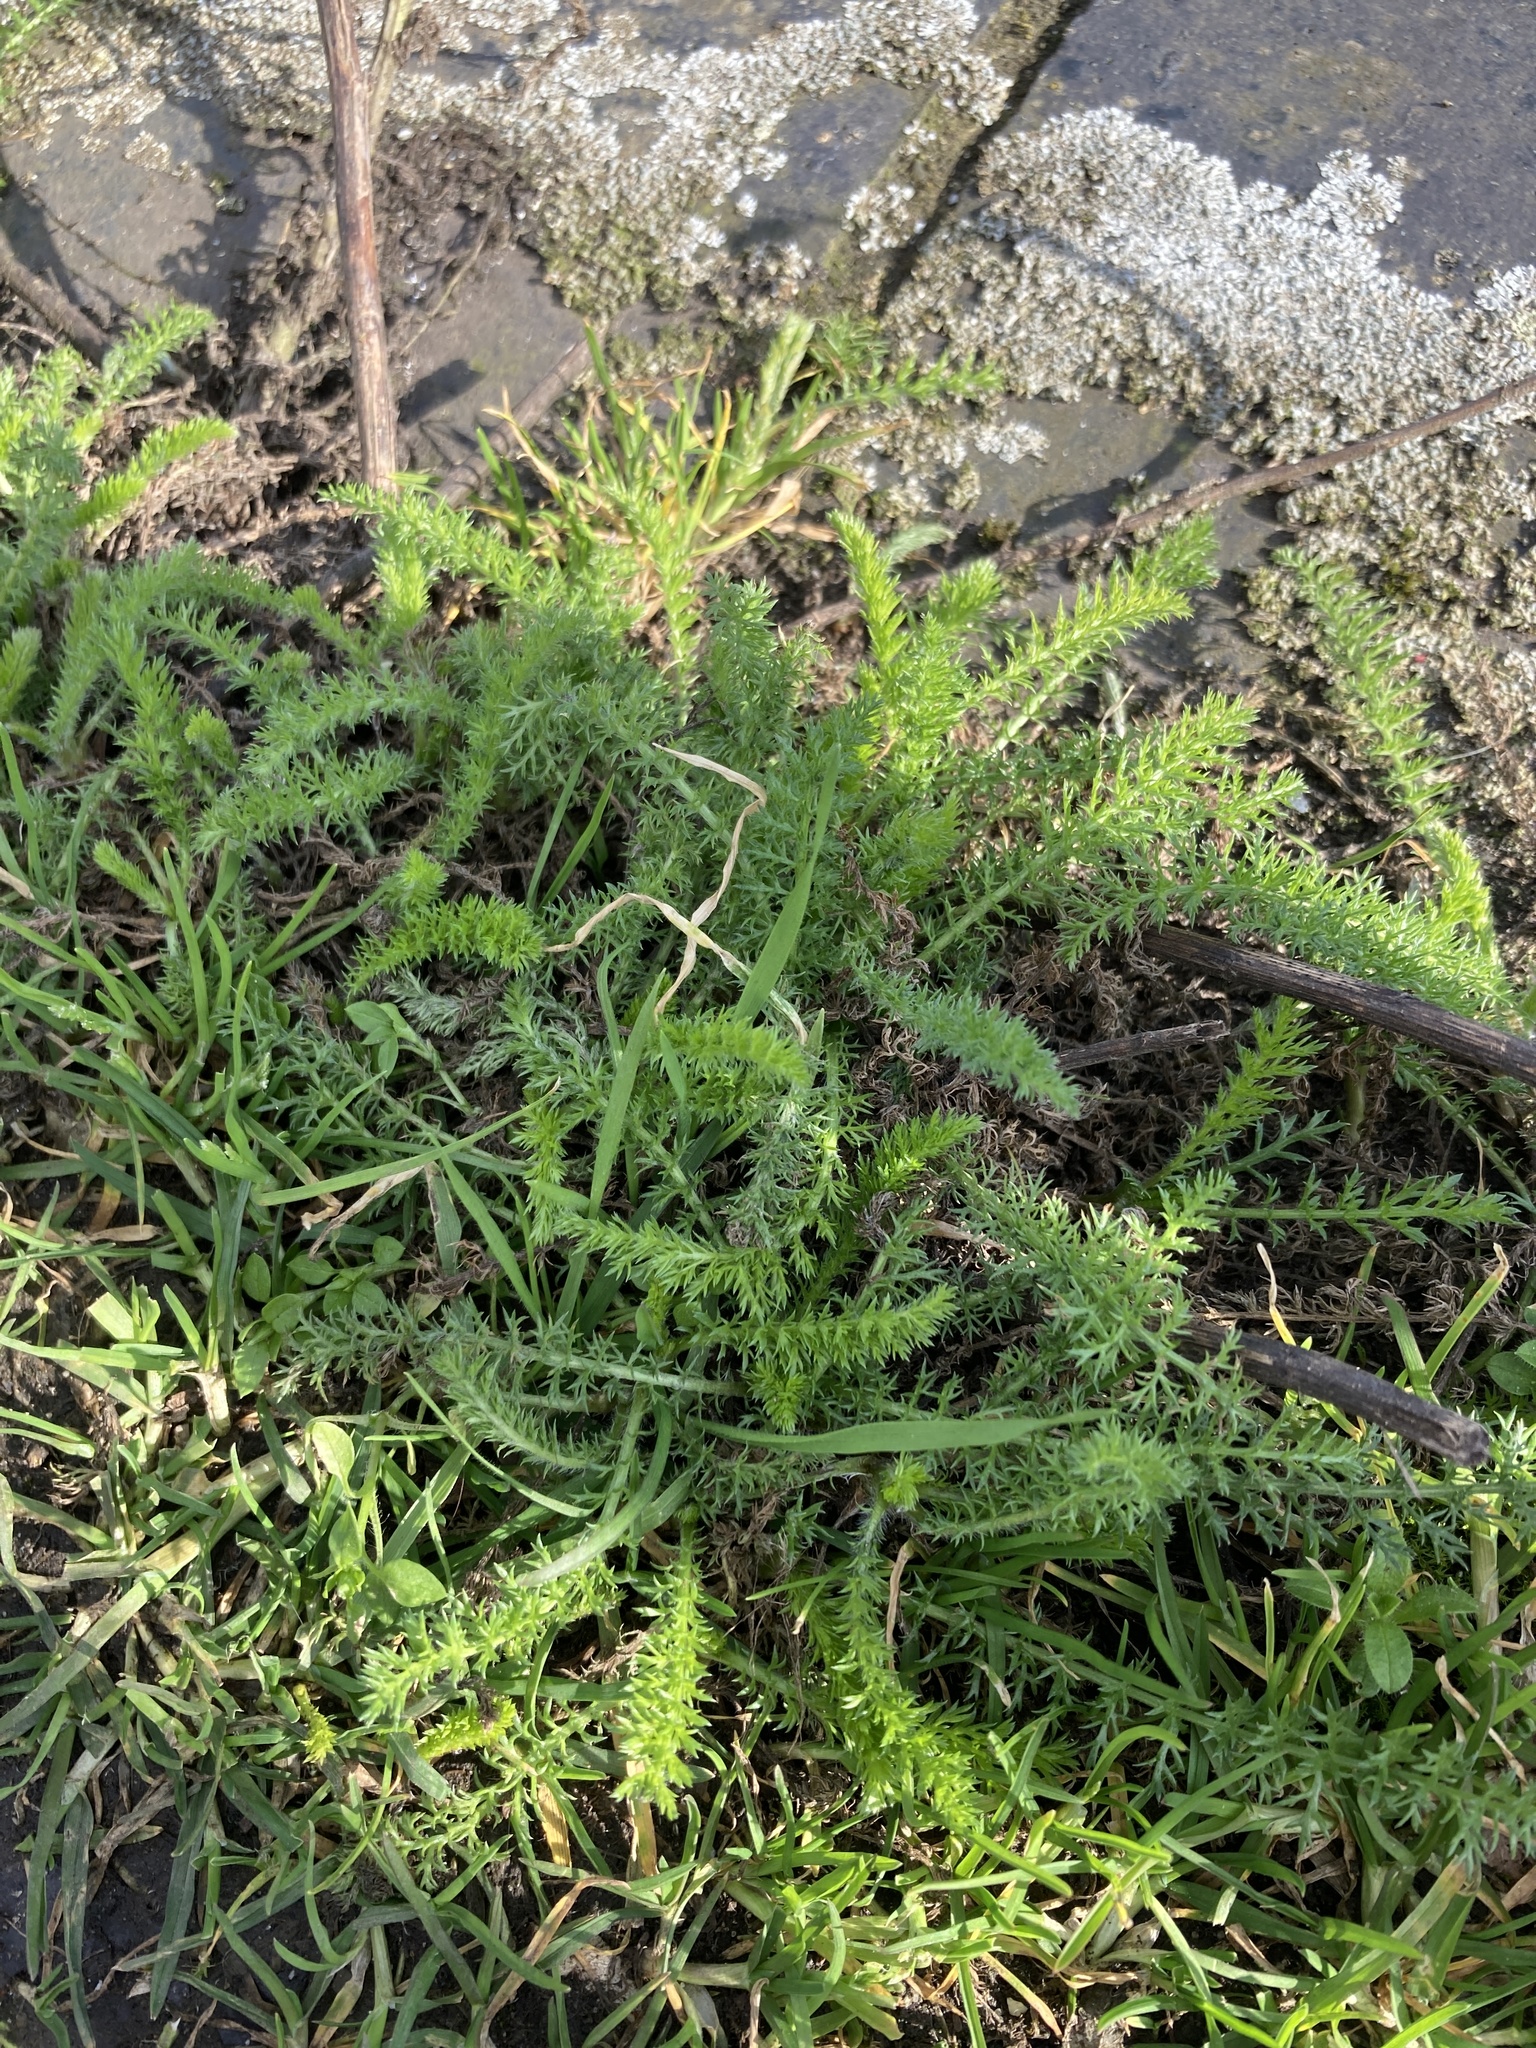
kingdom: Plantae
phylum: Tracheophyta
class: Magnoliopsida
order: Asterales
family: Asteraceae
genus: Achillea
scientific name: Achillea millefolium
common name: Yarrow
